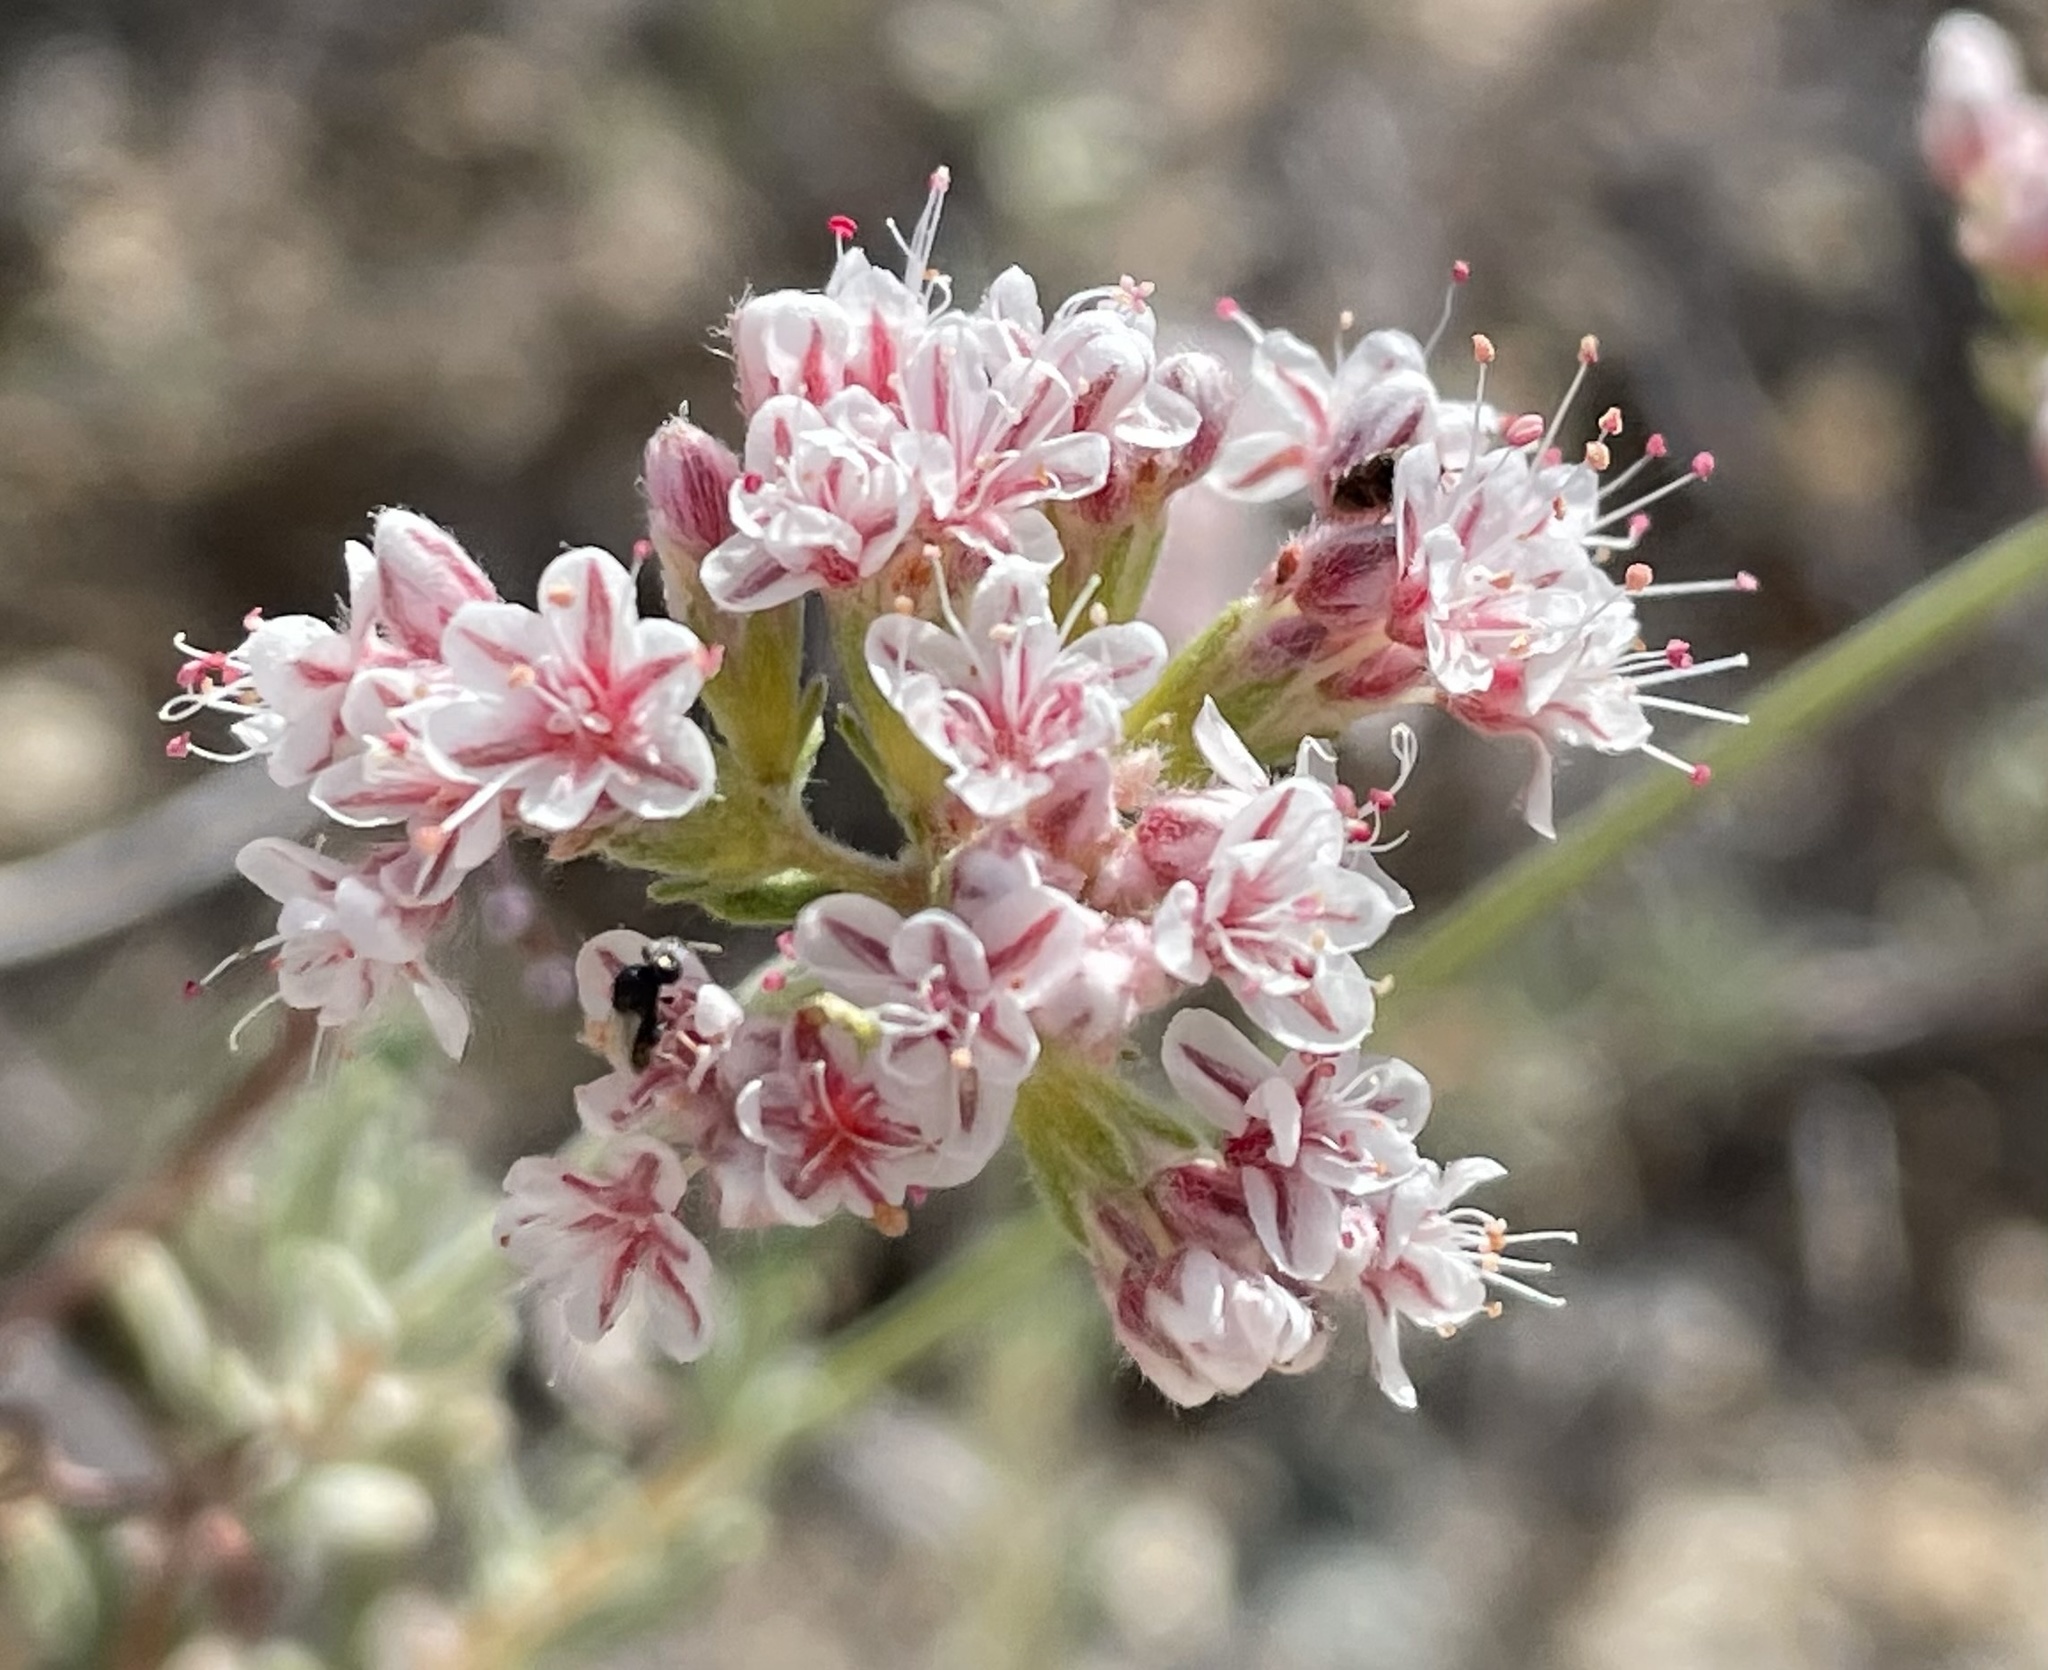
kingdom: Plantae
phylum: Tracheophyta
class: Magnoliopsida
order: Caryophyllales
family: Polygonaceae
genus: Eriogonum
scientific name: Eriogonum fasciculatum
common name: California wild buckwheat
